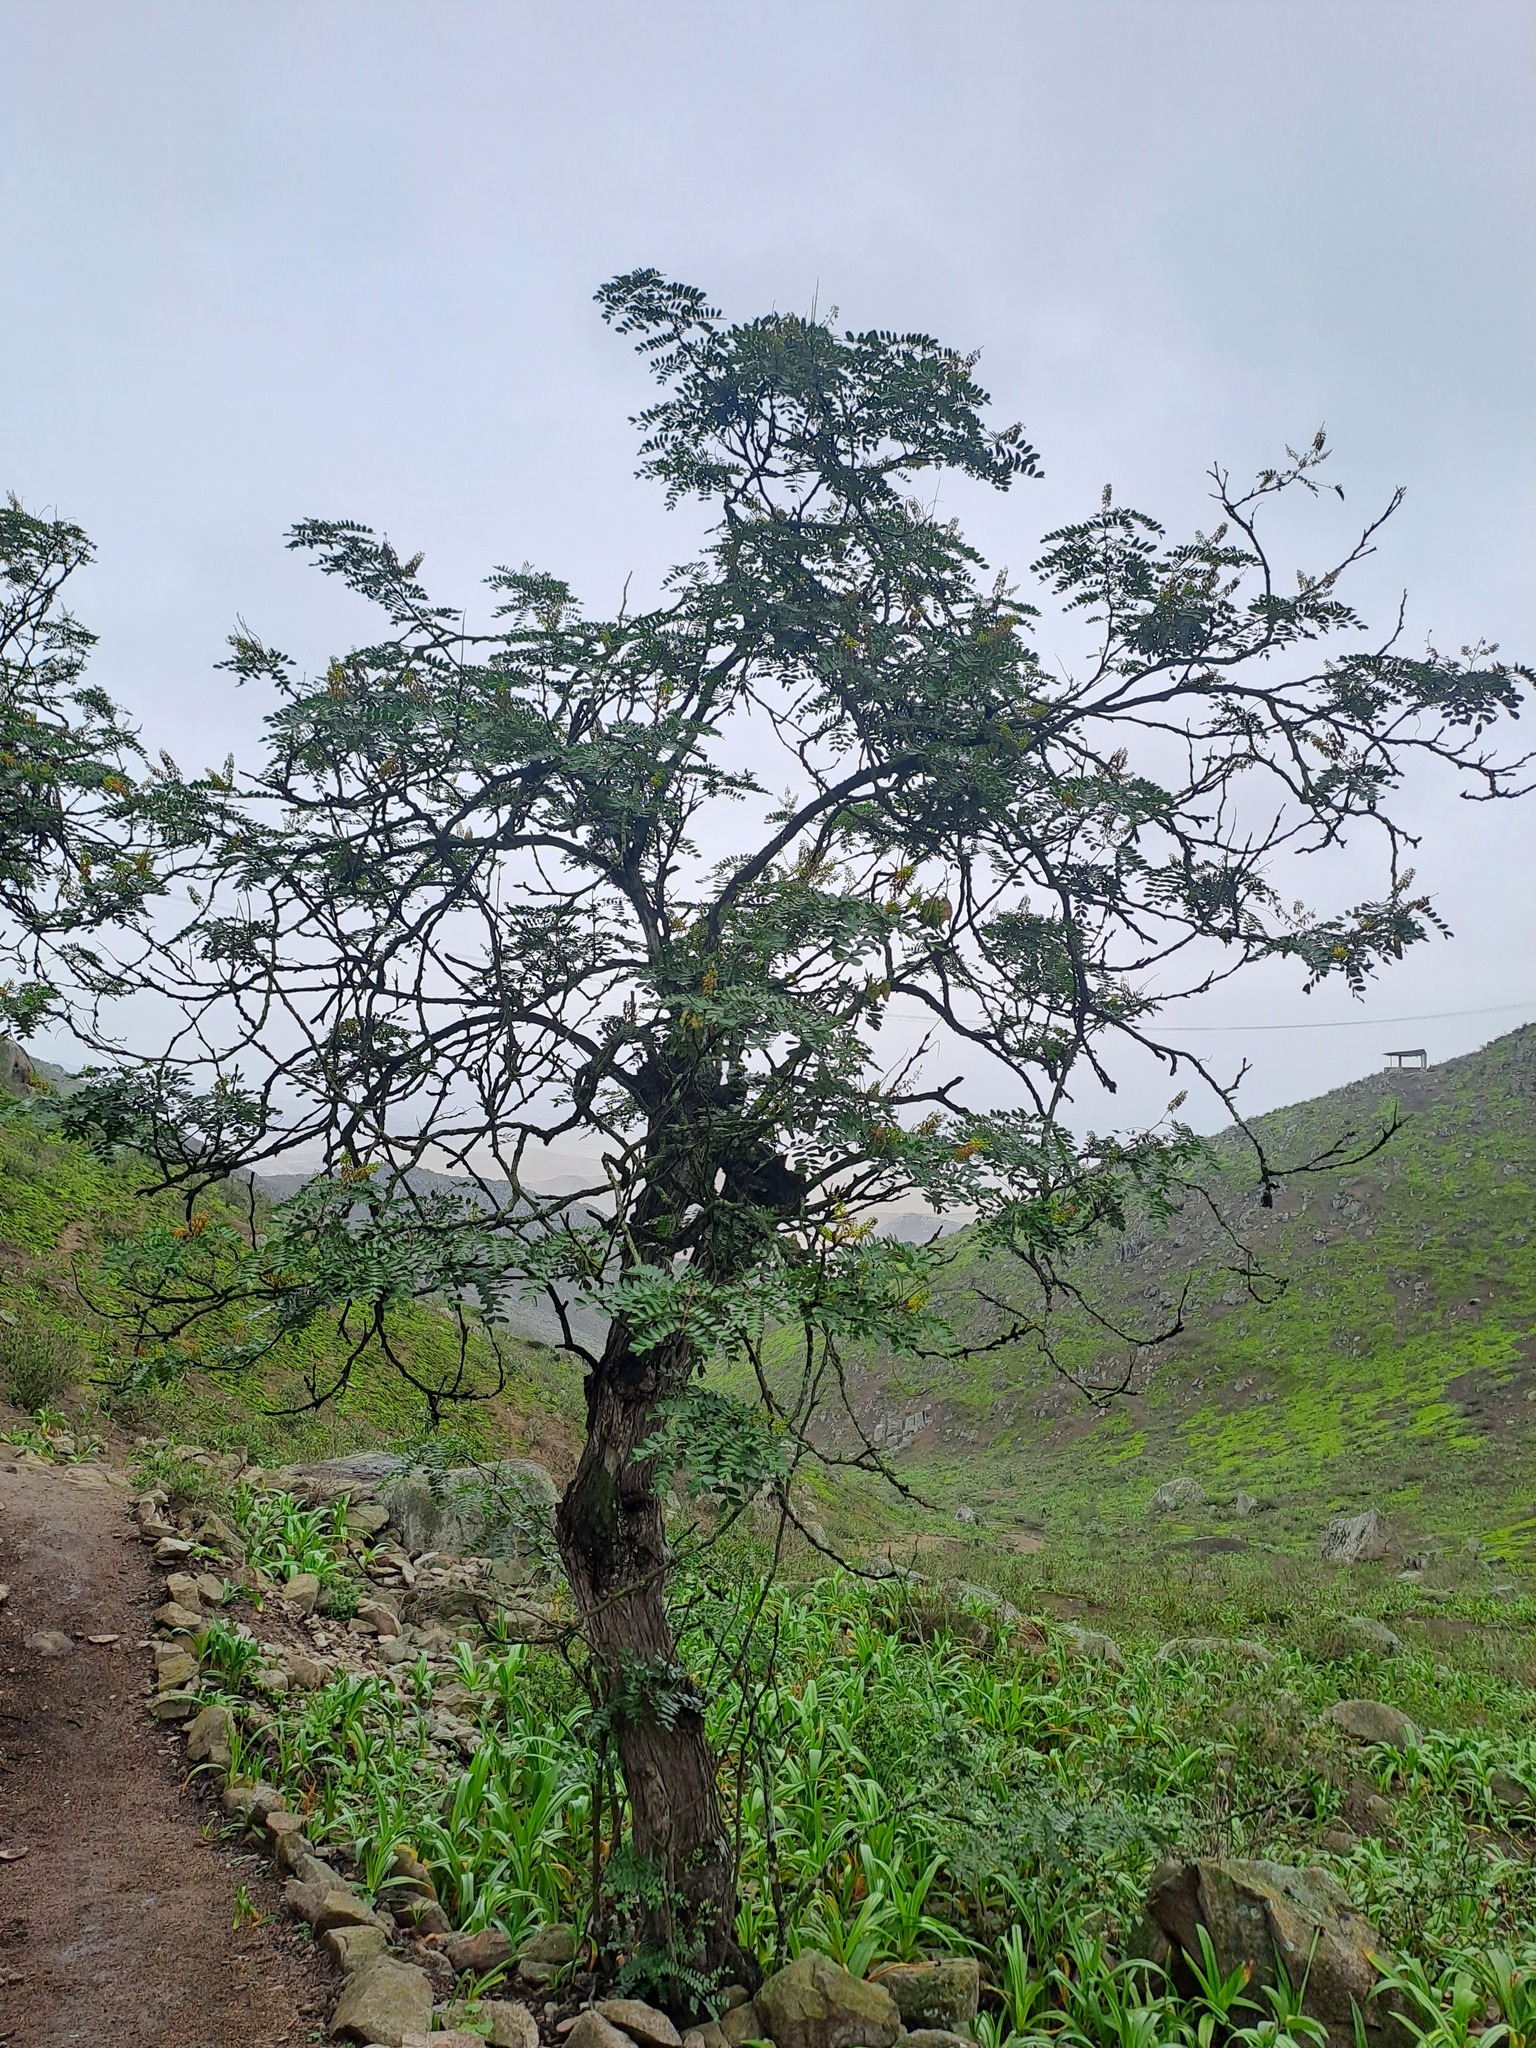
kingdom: Plantae
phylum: Tracheophyta
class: Magnoliopsida
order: Fabales
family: Fabaceae
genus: Tara
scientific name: Tara spinosa
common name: Spiny holdback
